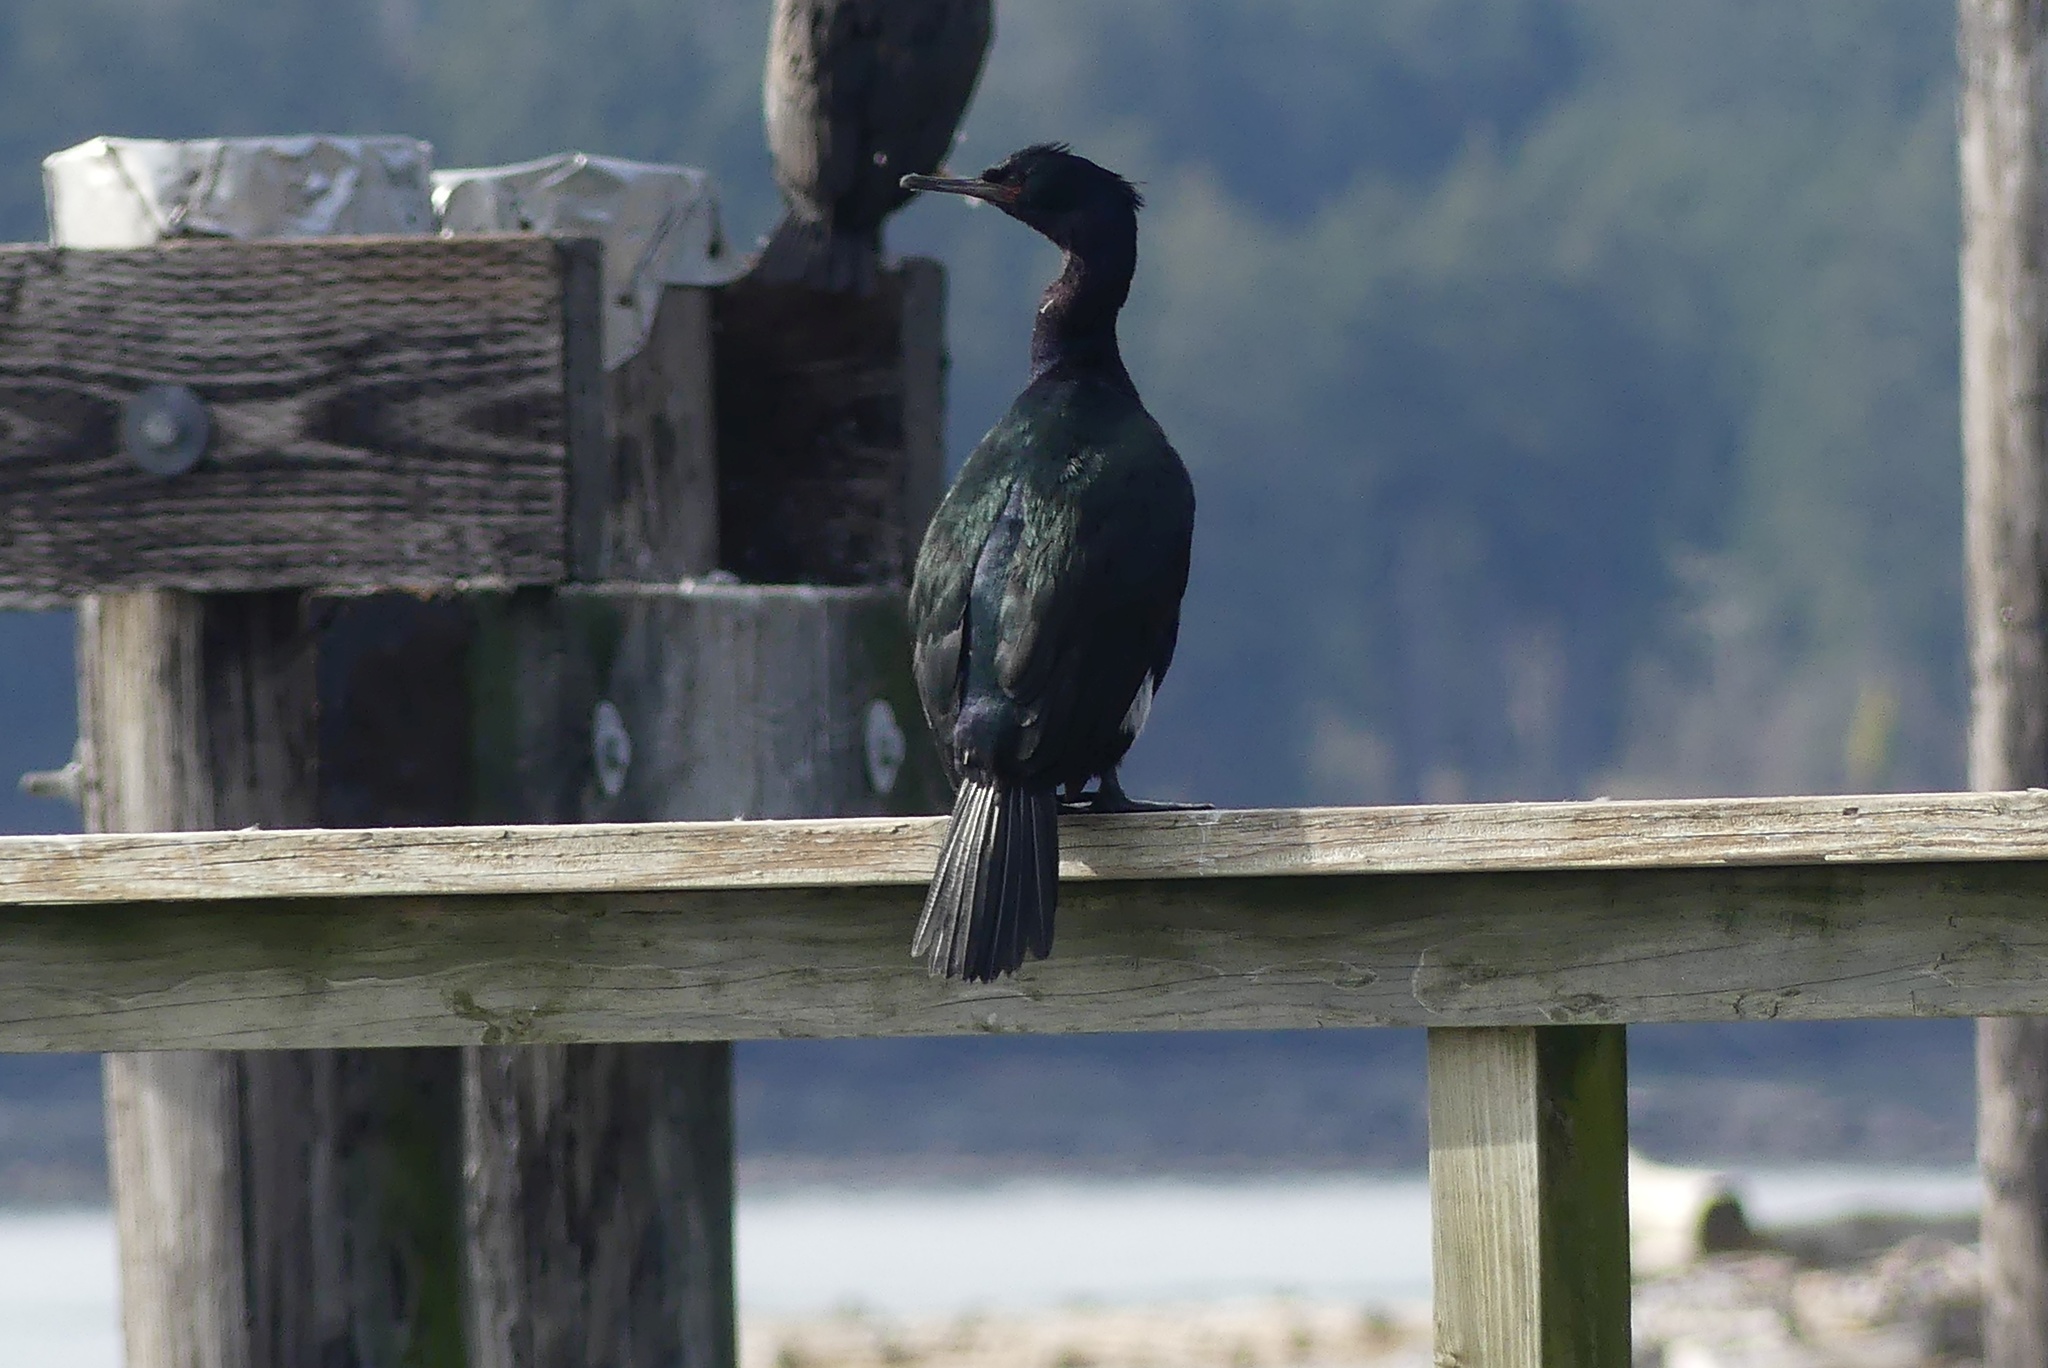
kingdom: Animalia
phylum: Chordata
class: Aves
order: Suliformes
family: Phalacrocoracidae
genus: Phalacrocorax
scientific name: Phalacrocorax pelagicus
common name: Pelagic cormorant
